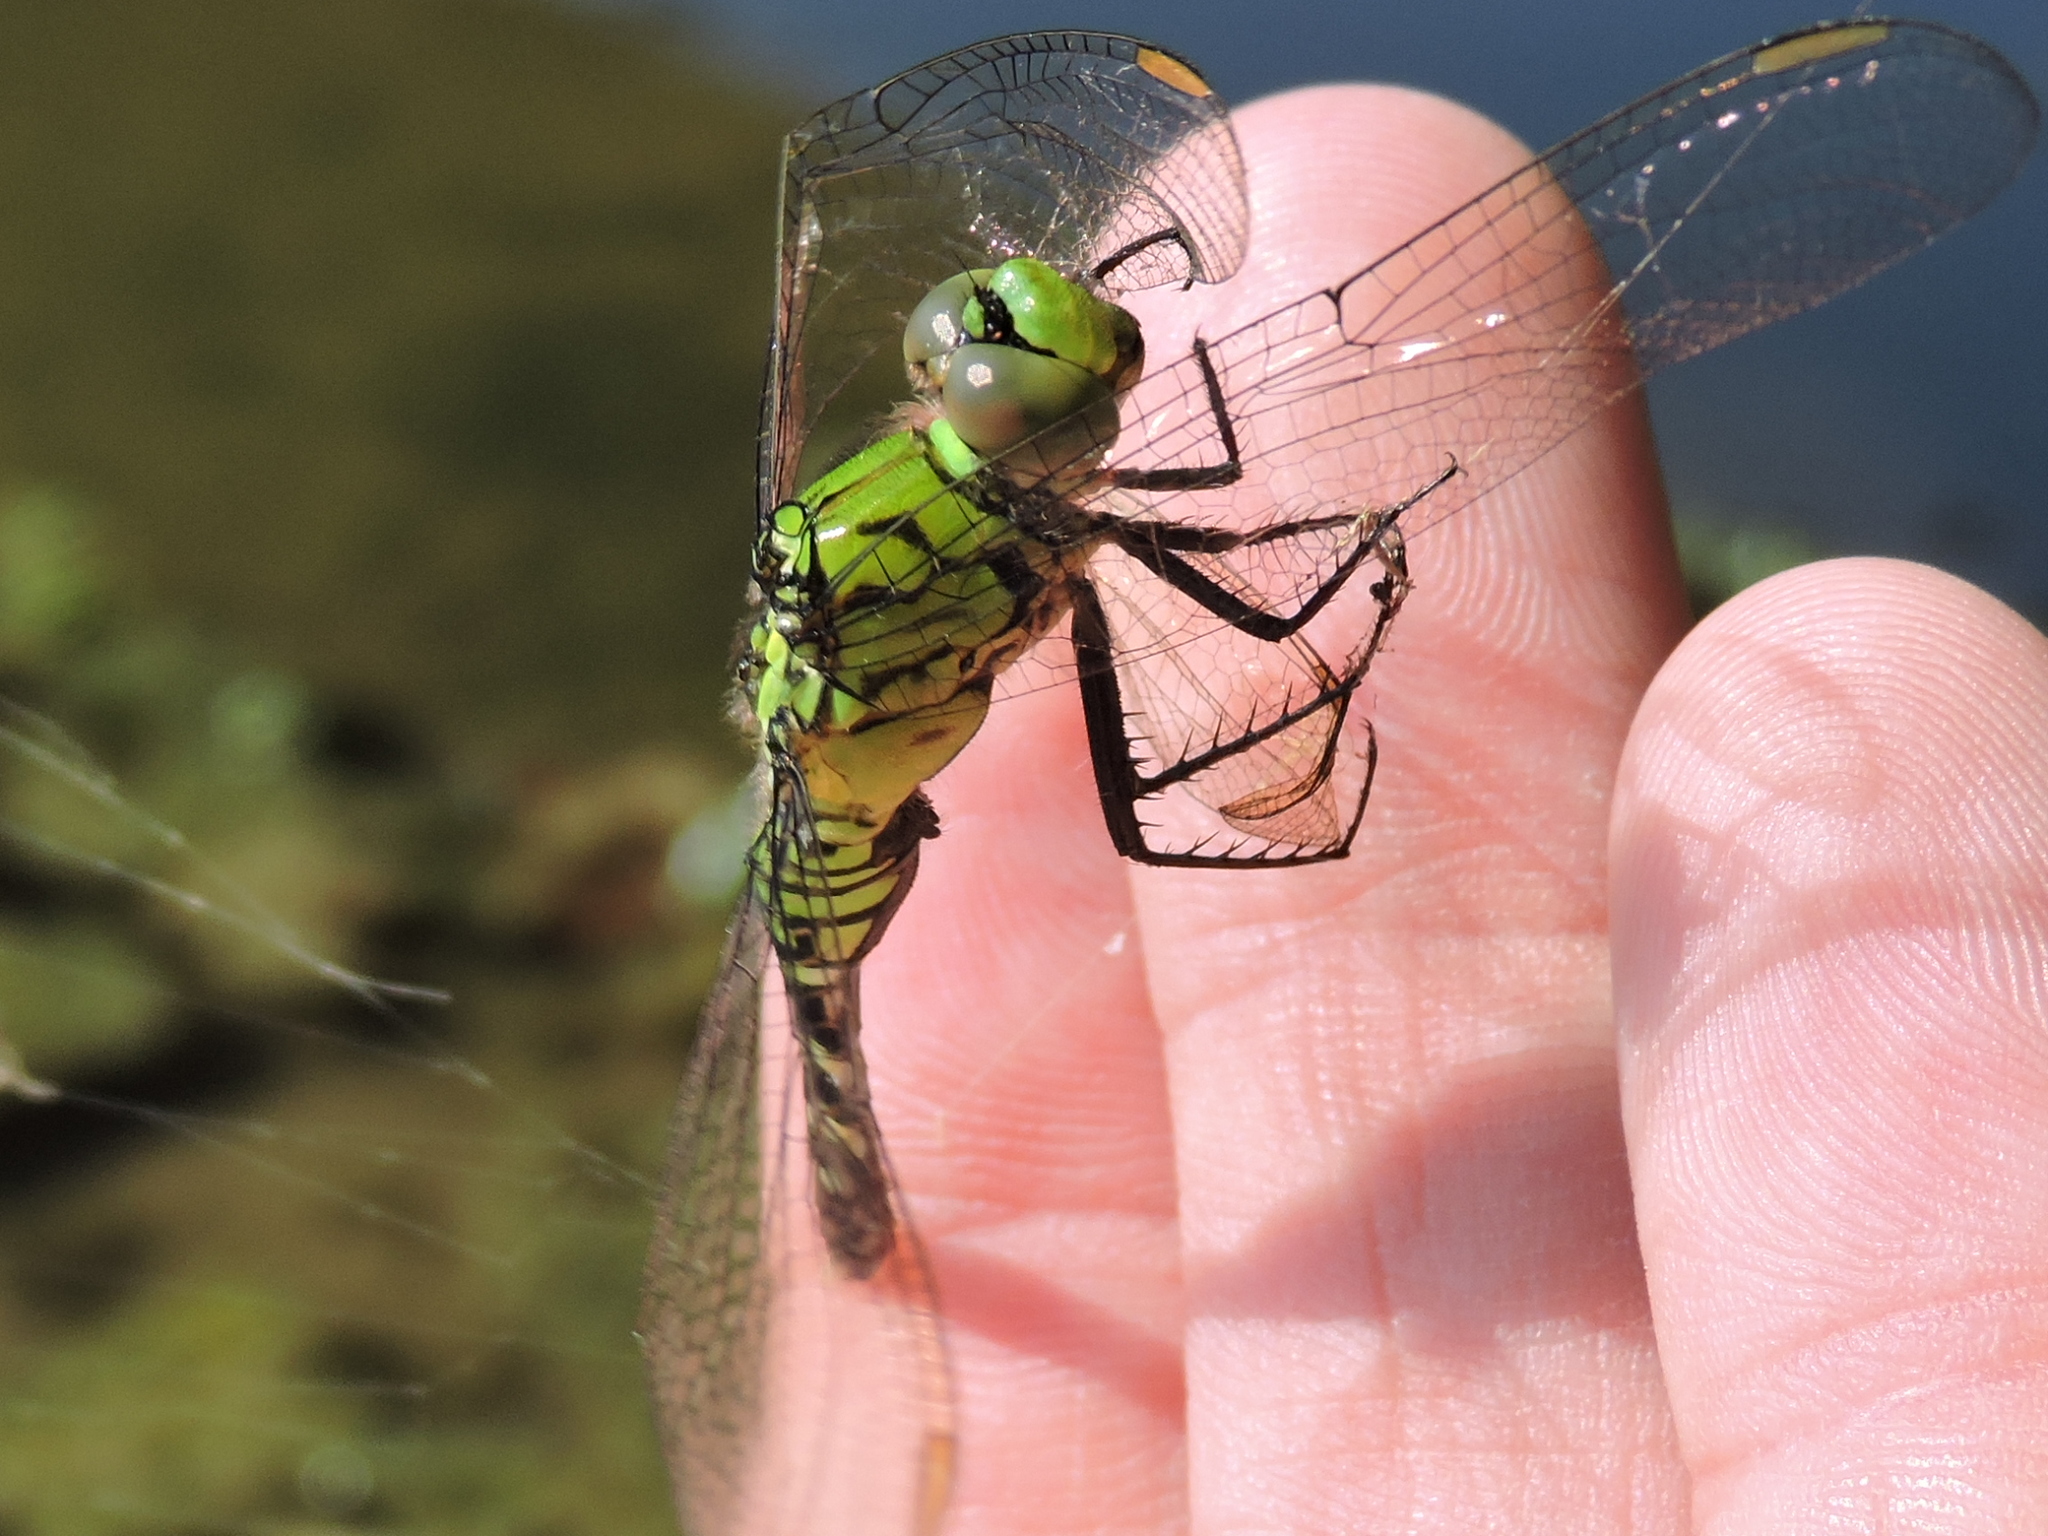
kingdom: Animalia
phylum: Arthropoda
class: Insecta
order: Odonata
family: Libellulidae
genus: Erythemis
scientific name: Erythemis simplicicollis
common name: Eastern pondhawk
